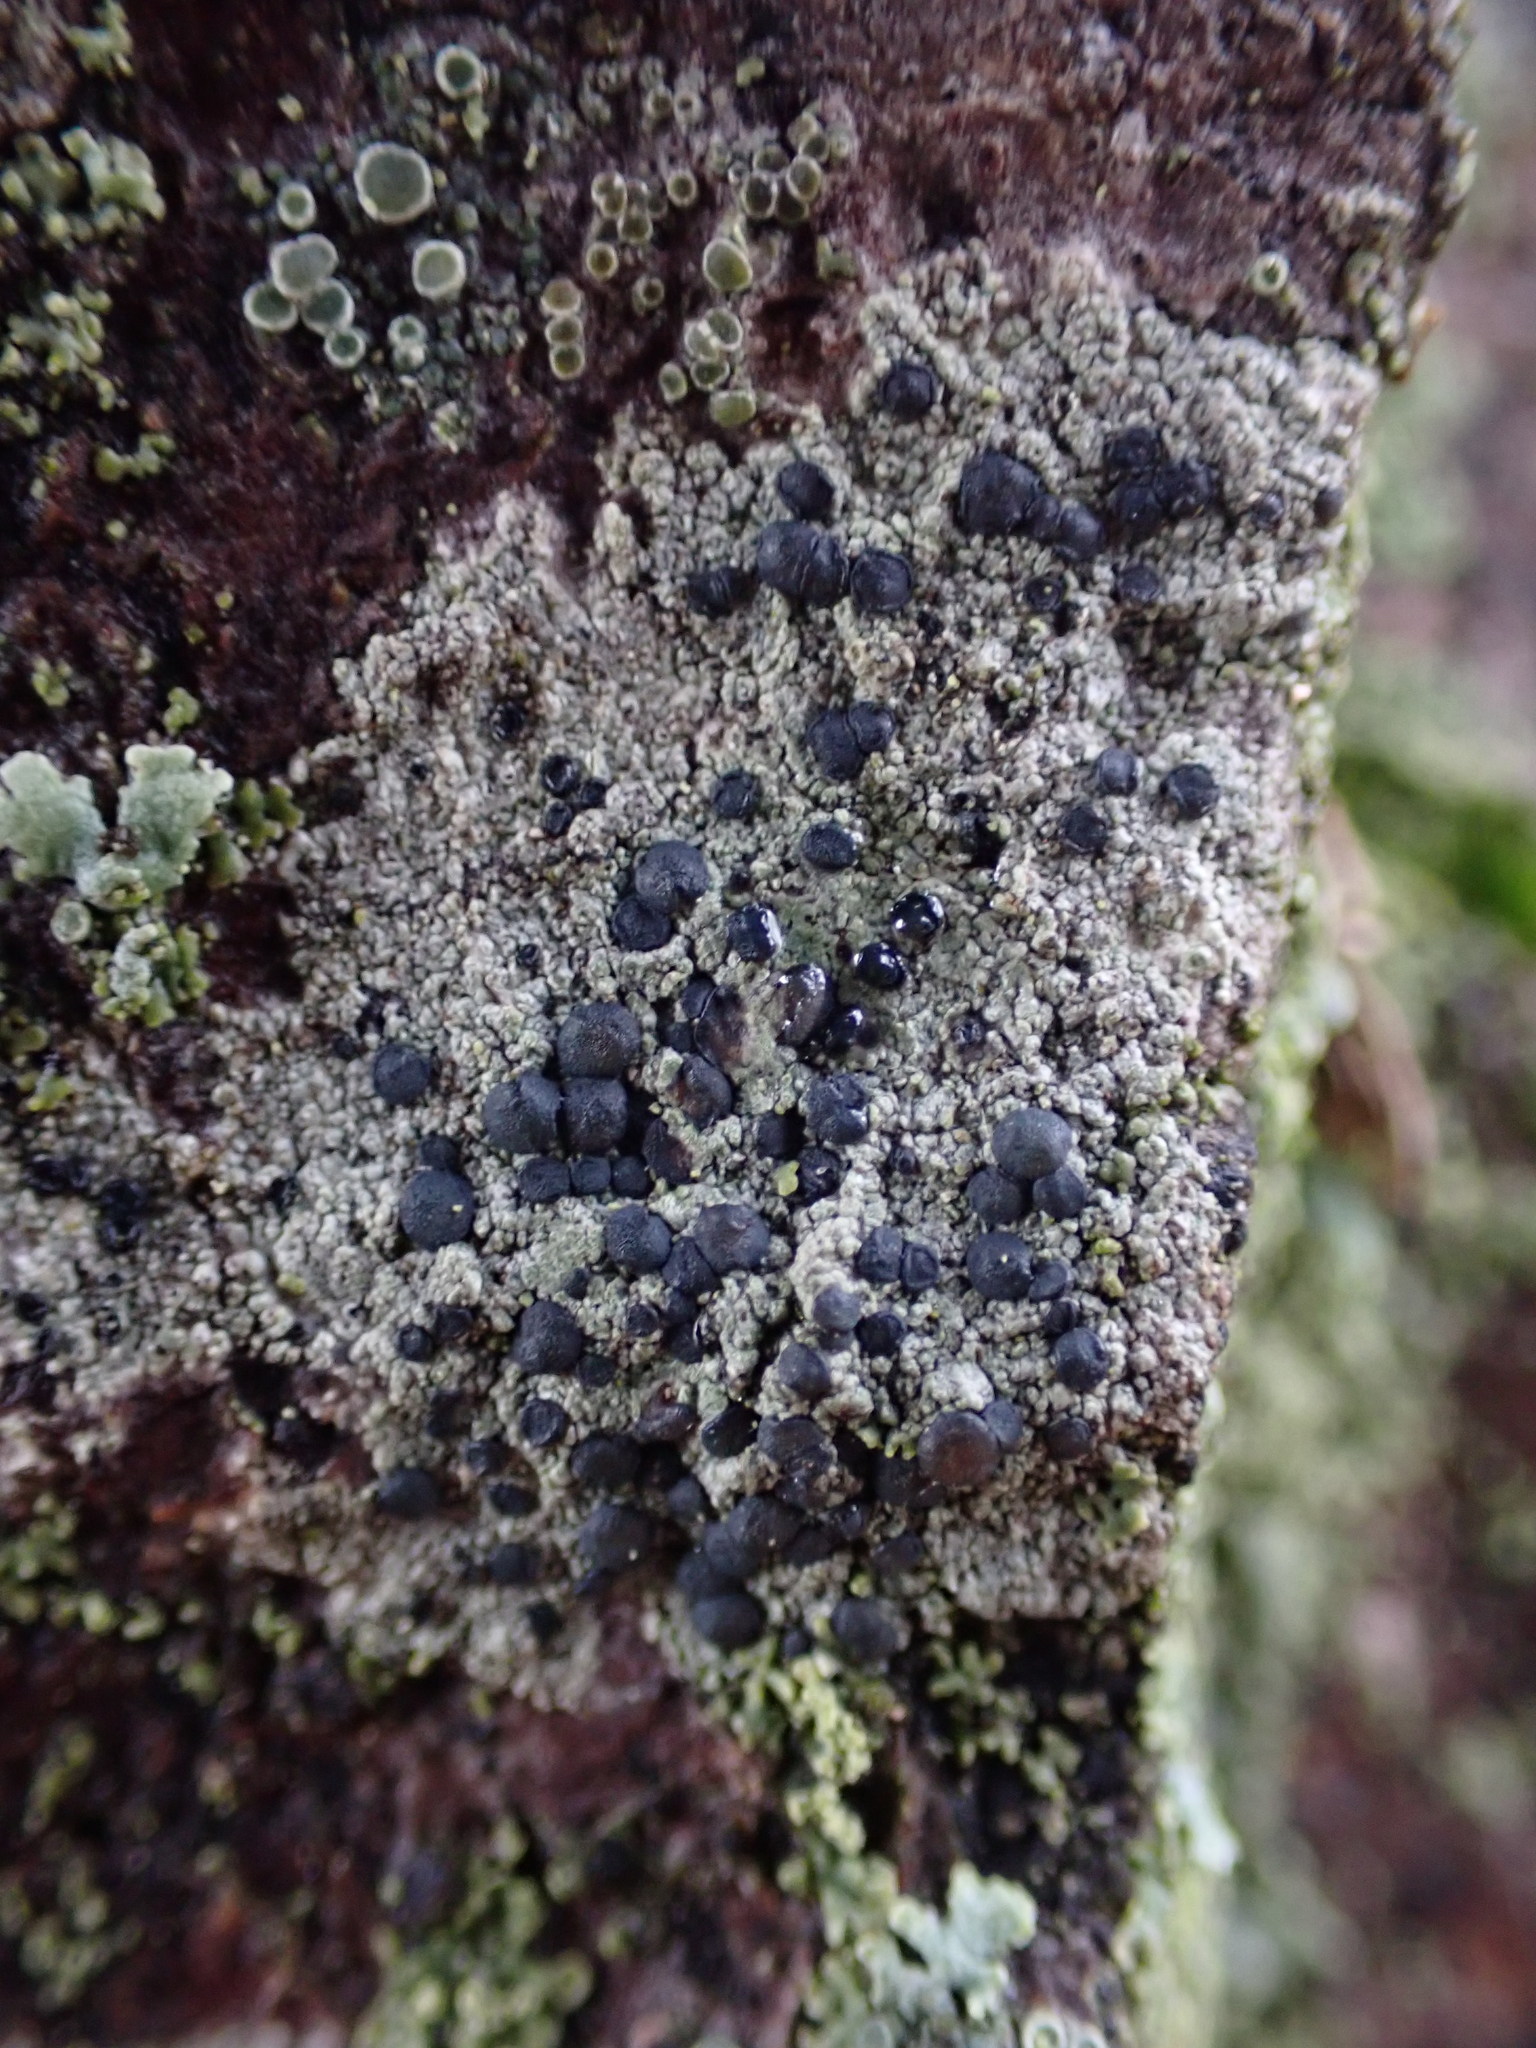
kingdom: Fungi
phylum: Ascomycota
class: Lecanoromycetes
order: Lecanorales
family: Lecanoraceae
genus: Lecidella
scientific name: Lecidella elaeochroma
